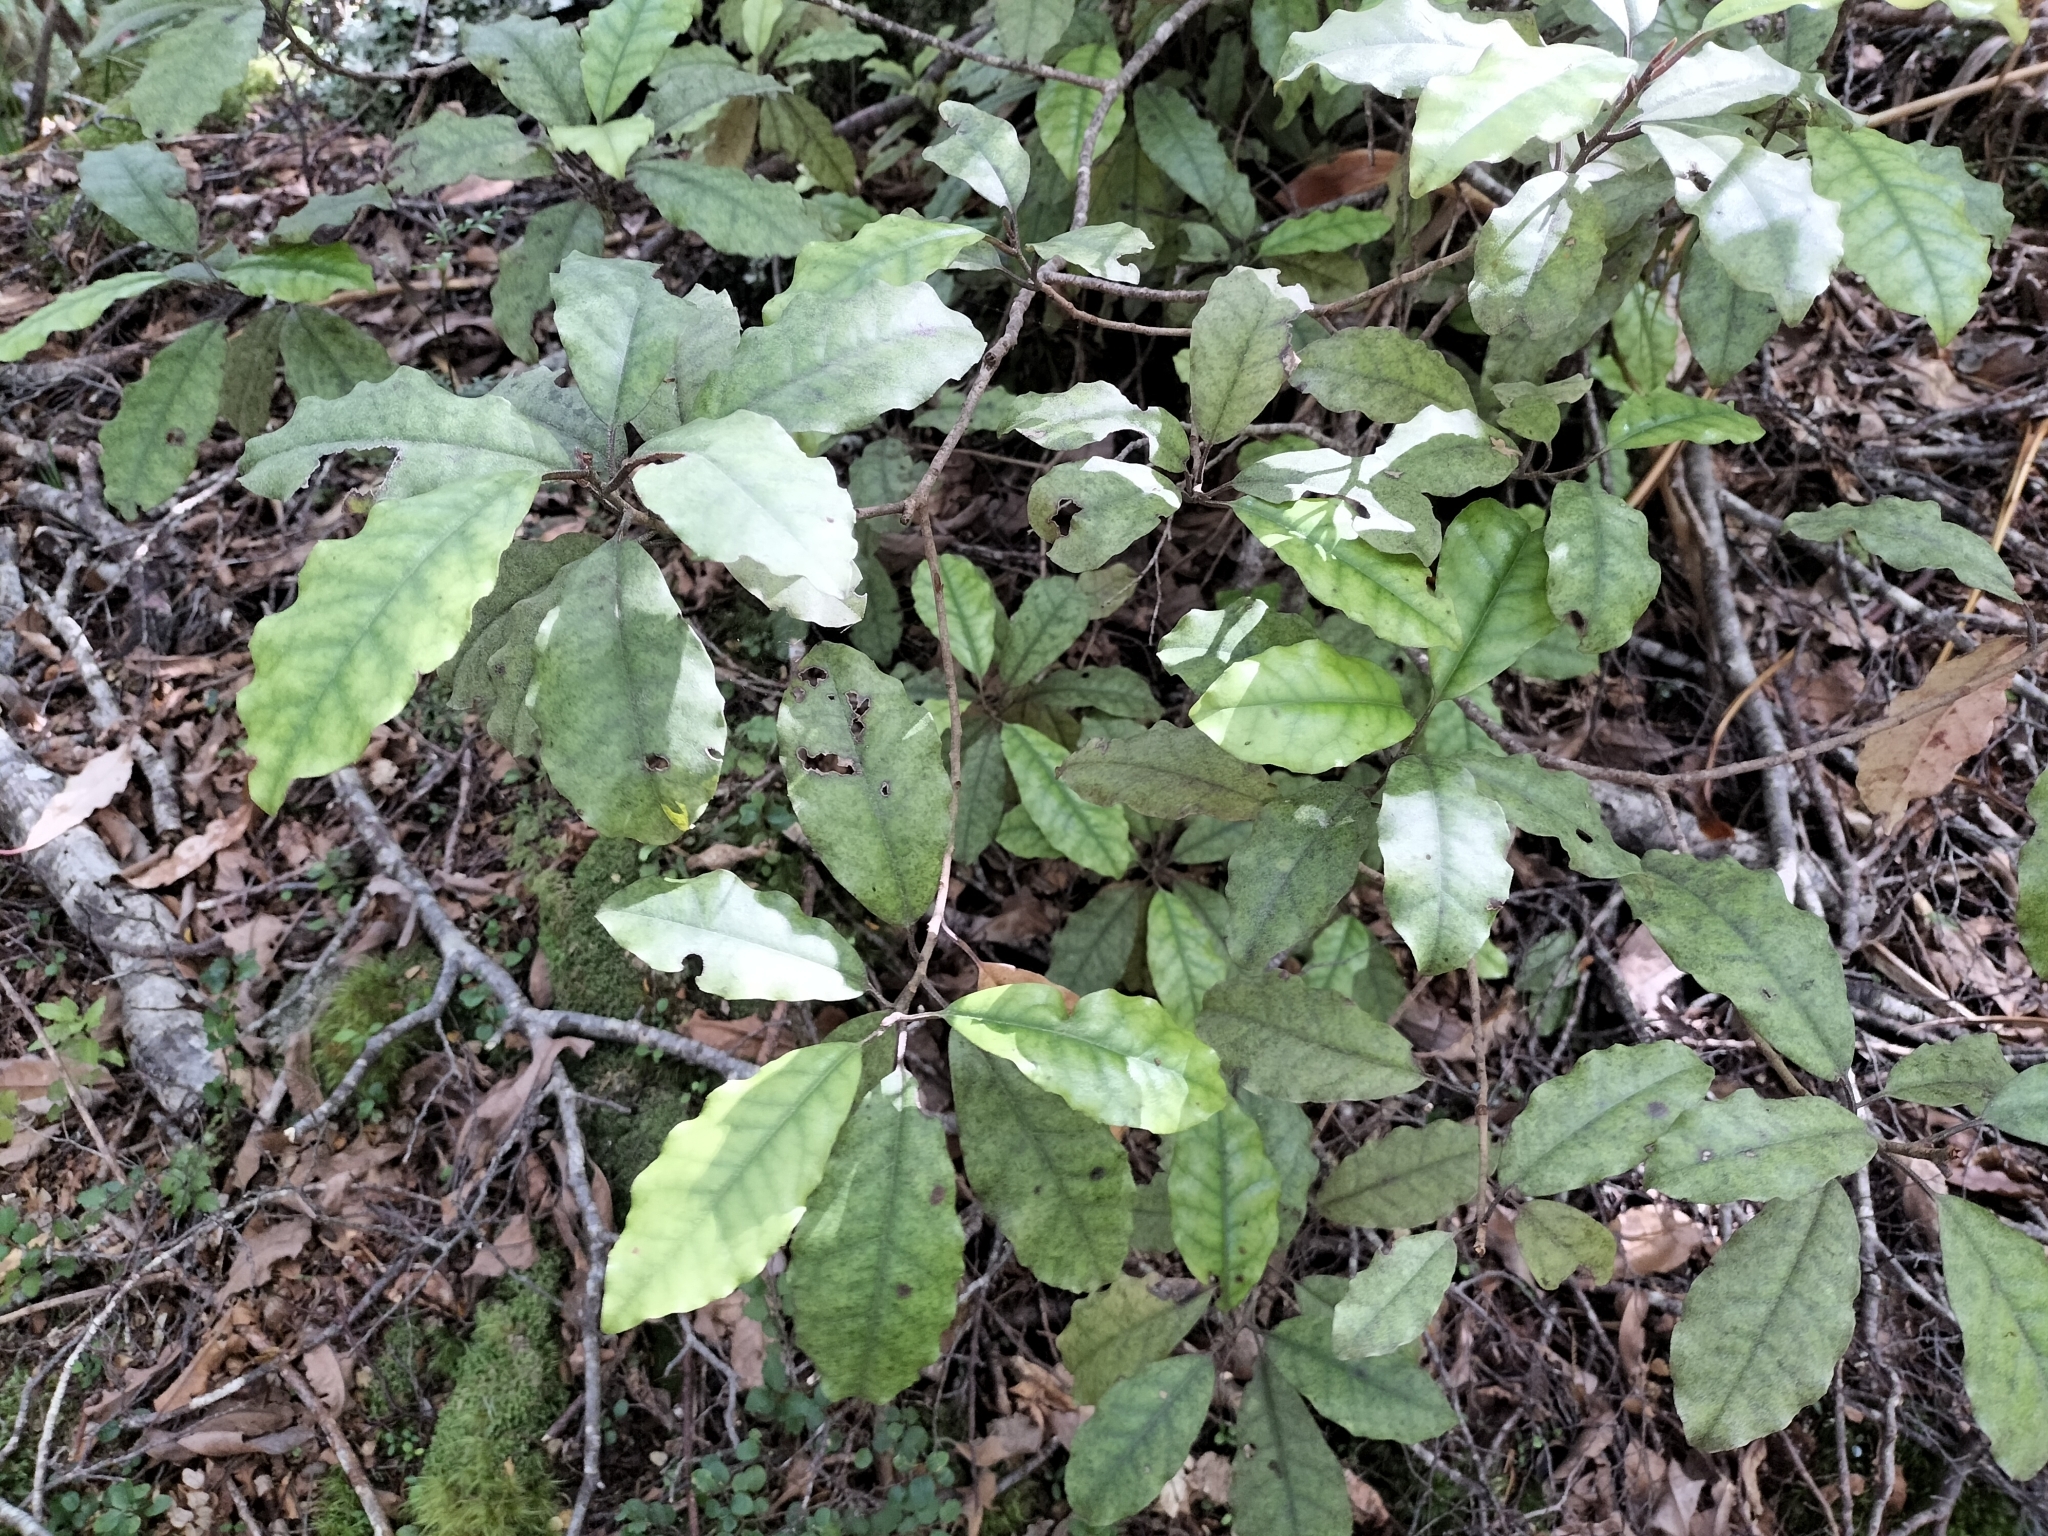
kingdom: Plantae
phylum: Tracheophyta
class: Magnoliopsida
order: Paracryphiales
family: Paracryphiaceae
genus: Quintinia
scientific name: Quintinia serrata
